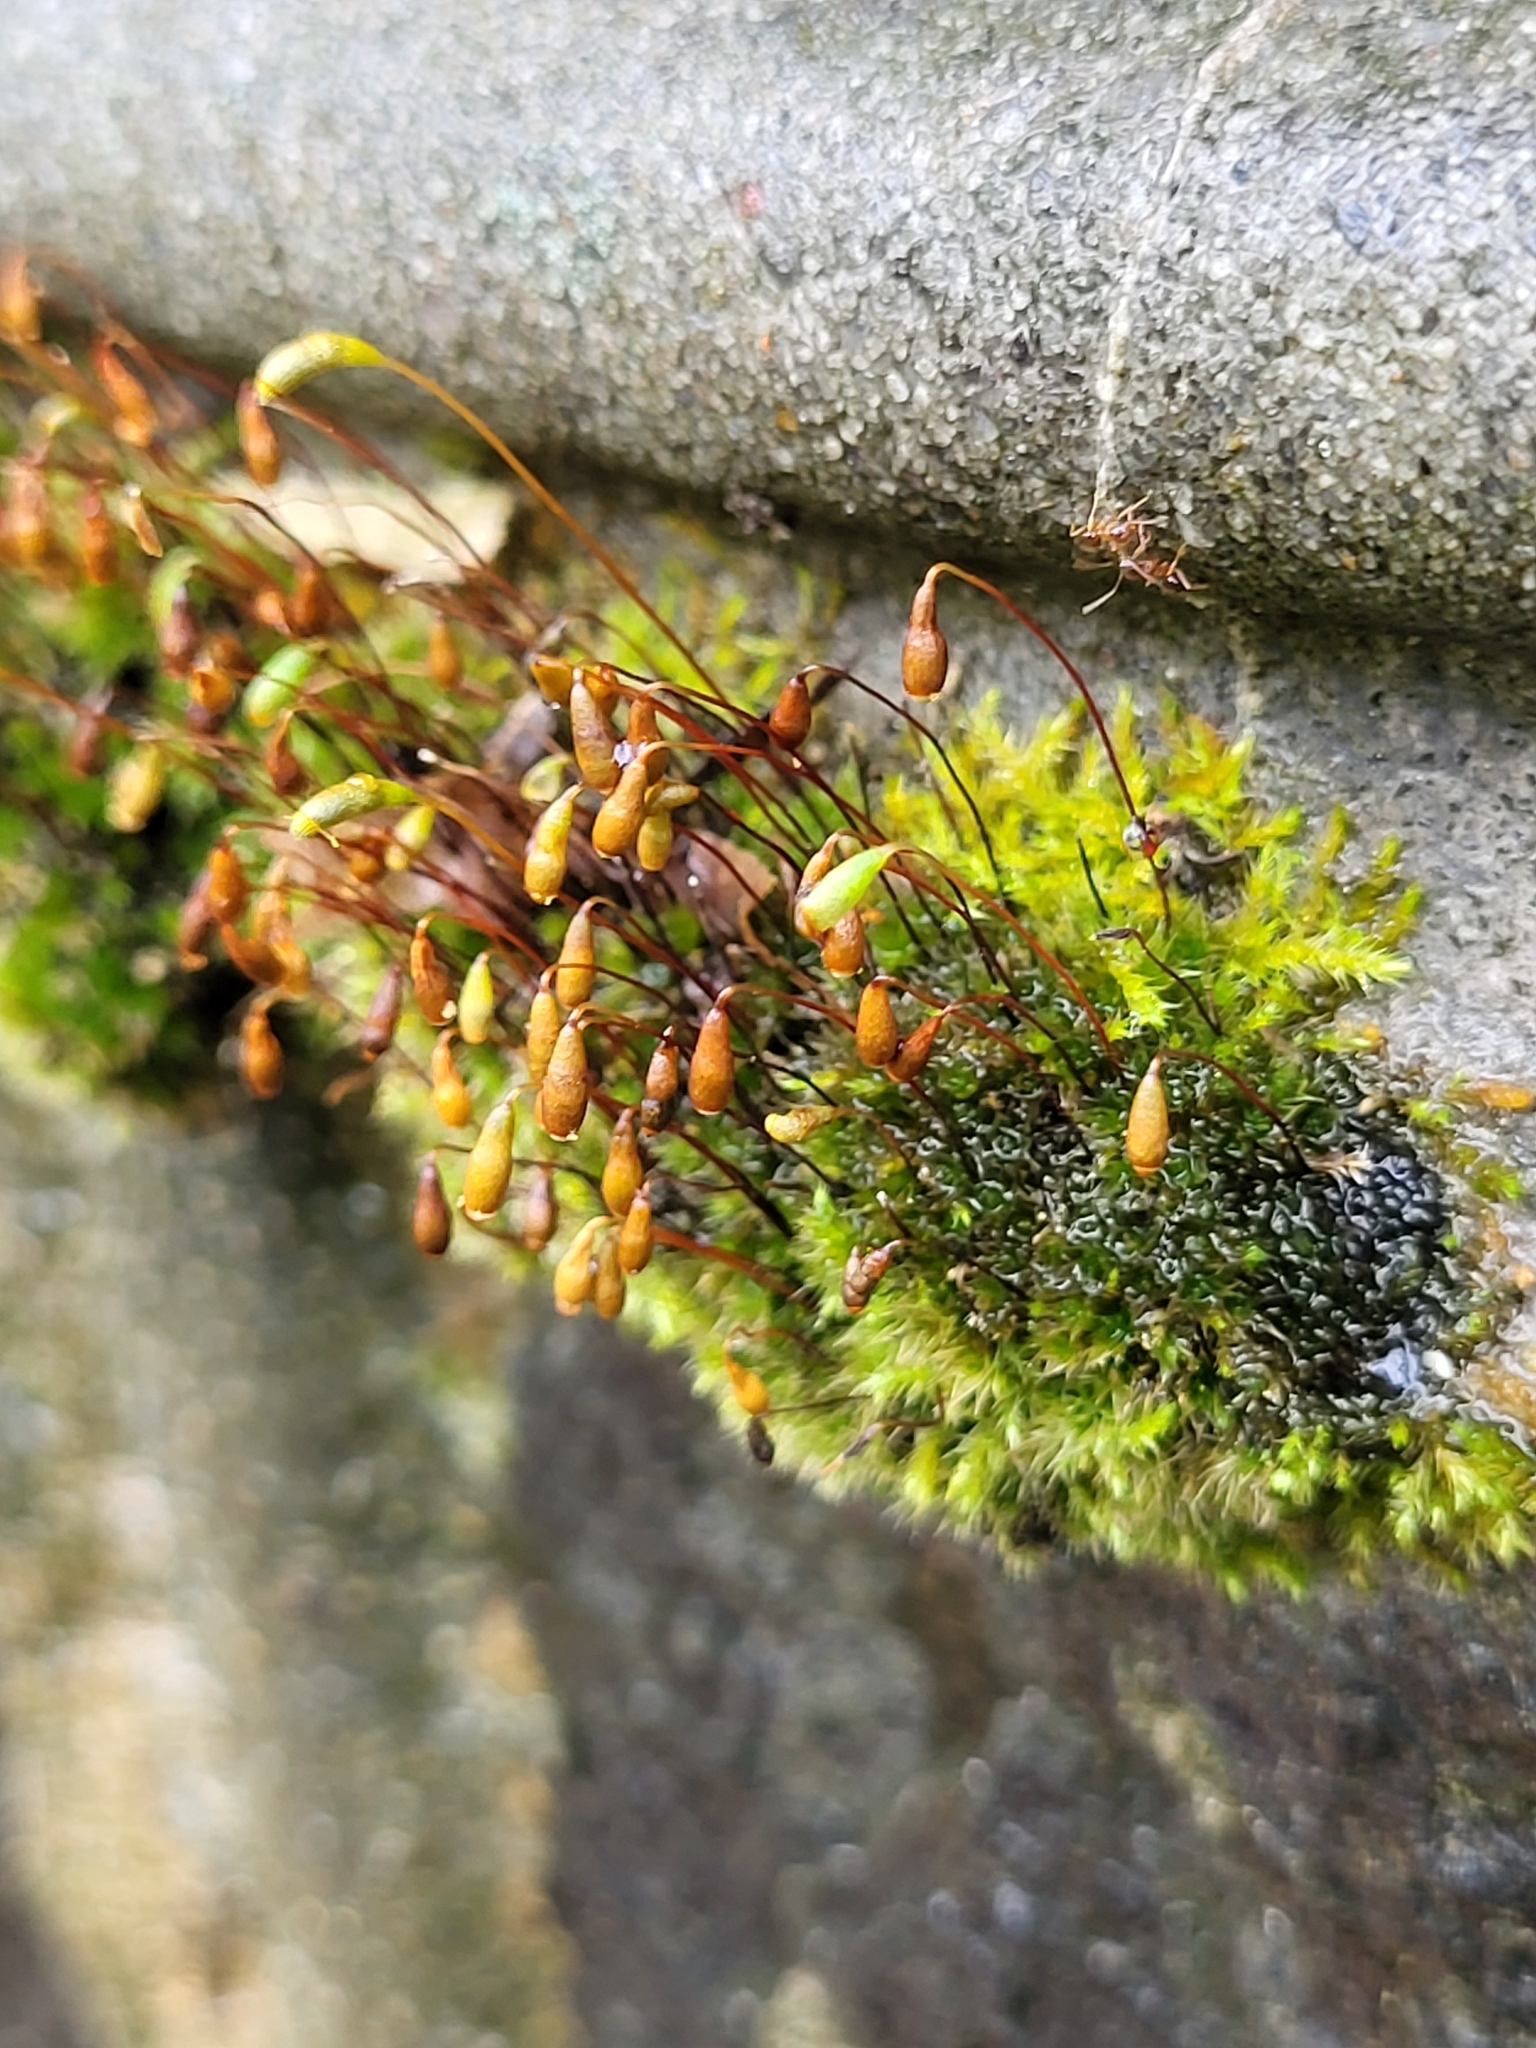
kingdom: Plantae
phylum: Bryophyta
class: Bryopsida
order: Bryales
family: Mniaceae
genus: Pohlia
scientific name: Pohlia nutans
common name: Nodding thread-moss
